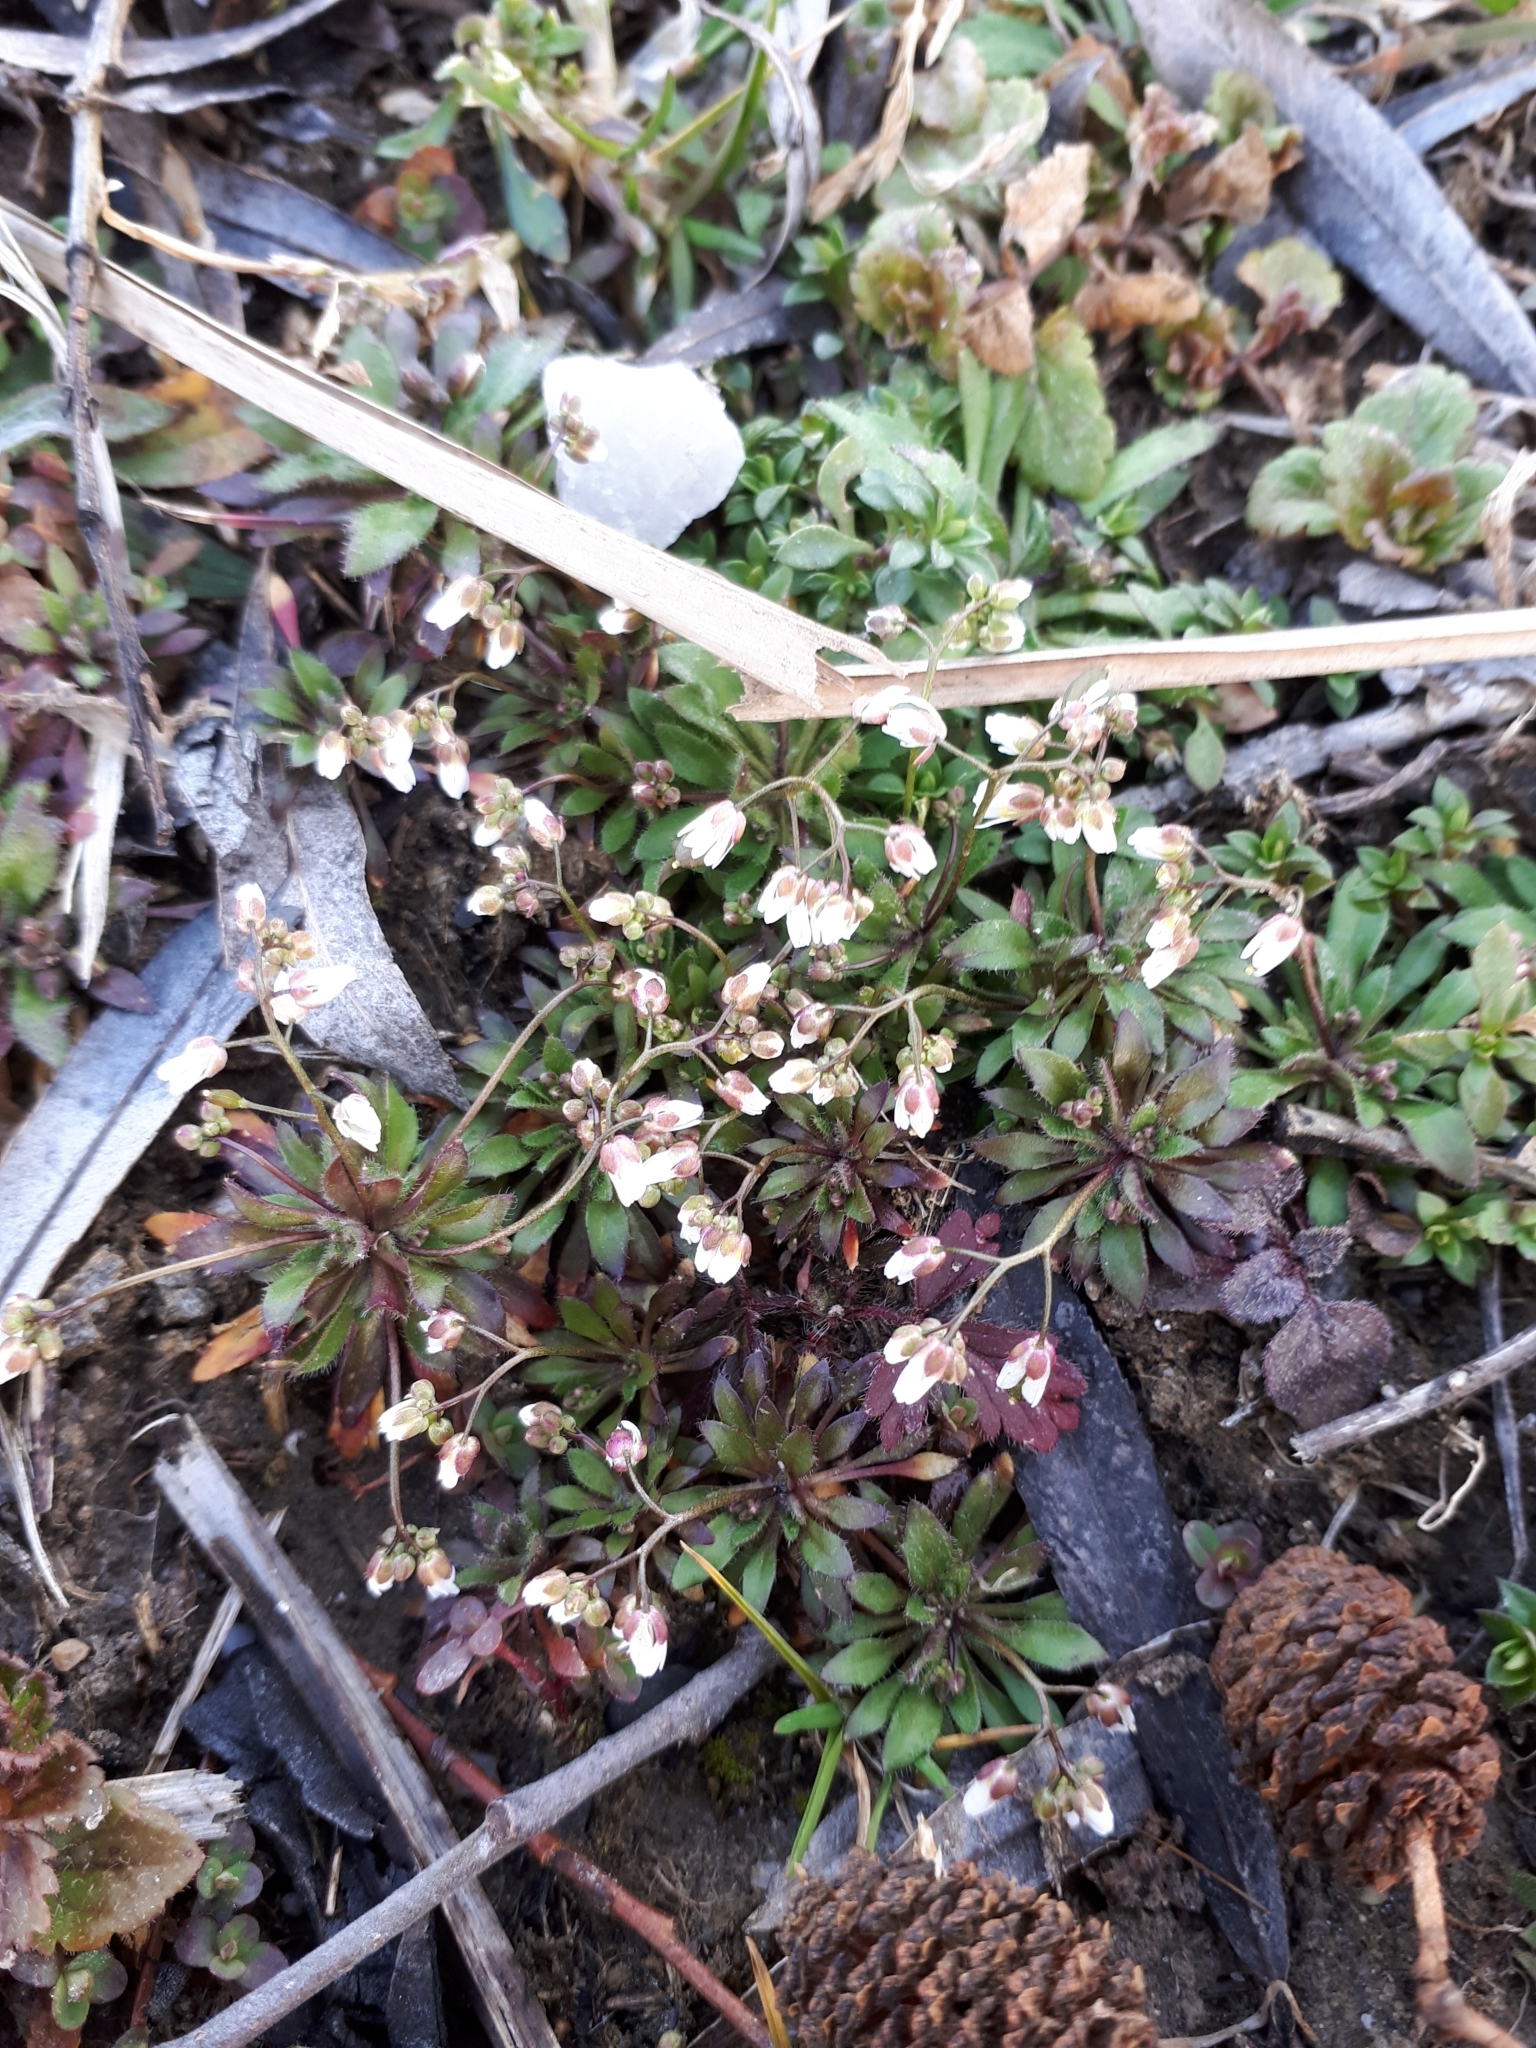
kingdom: Plantae
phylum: Tracheophyta
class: Magnoliopsida
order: Brassicales
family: Brassicaceae
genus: Draba
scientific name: Draba verna
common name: Spring draba
